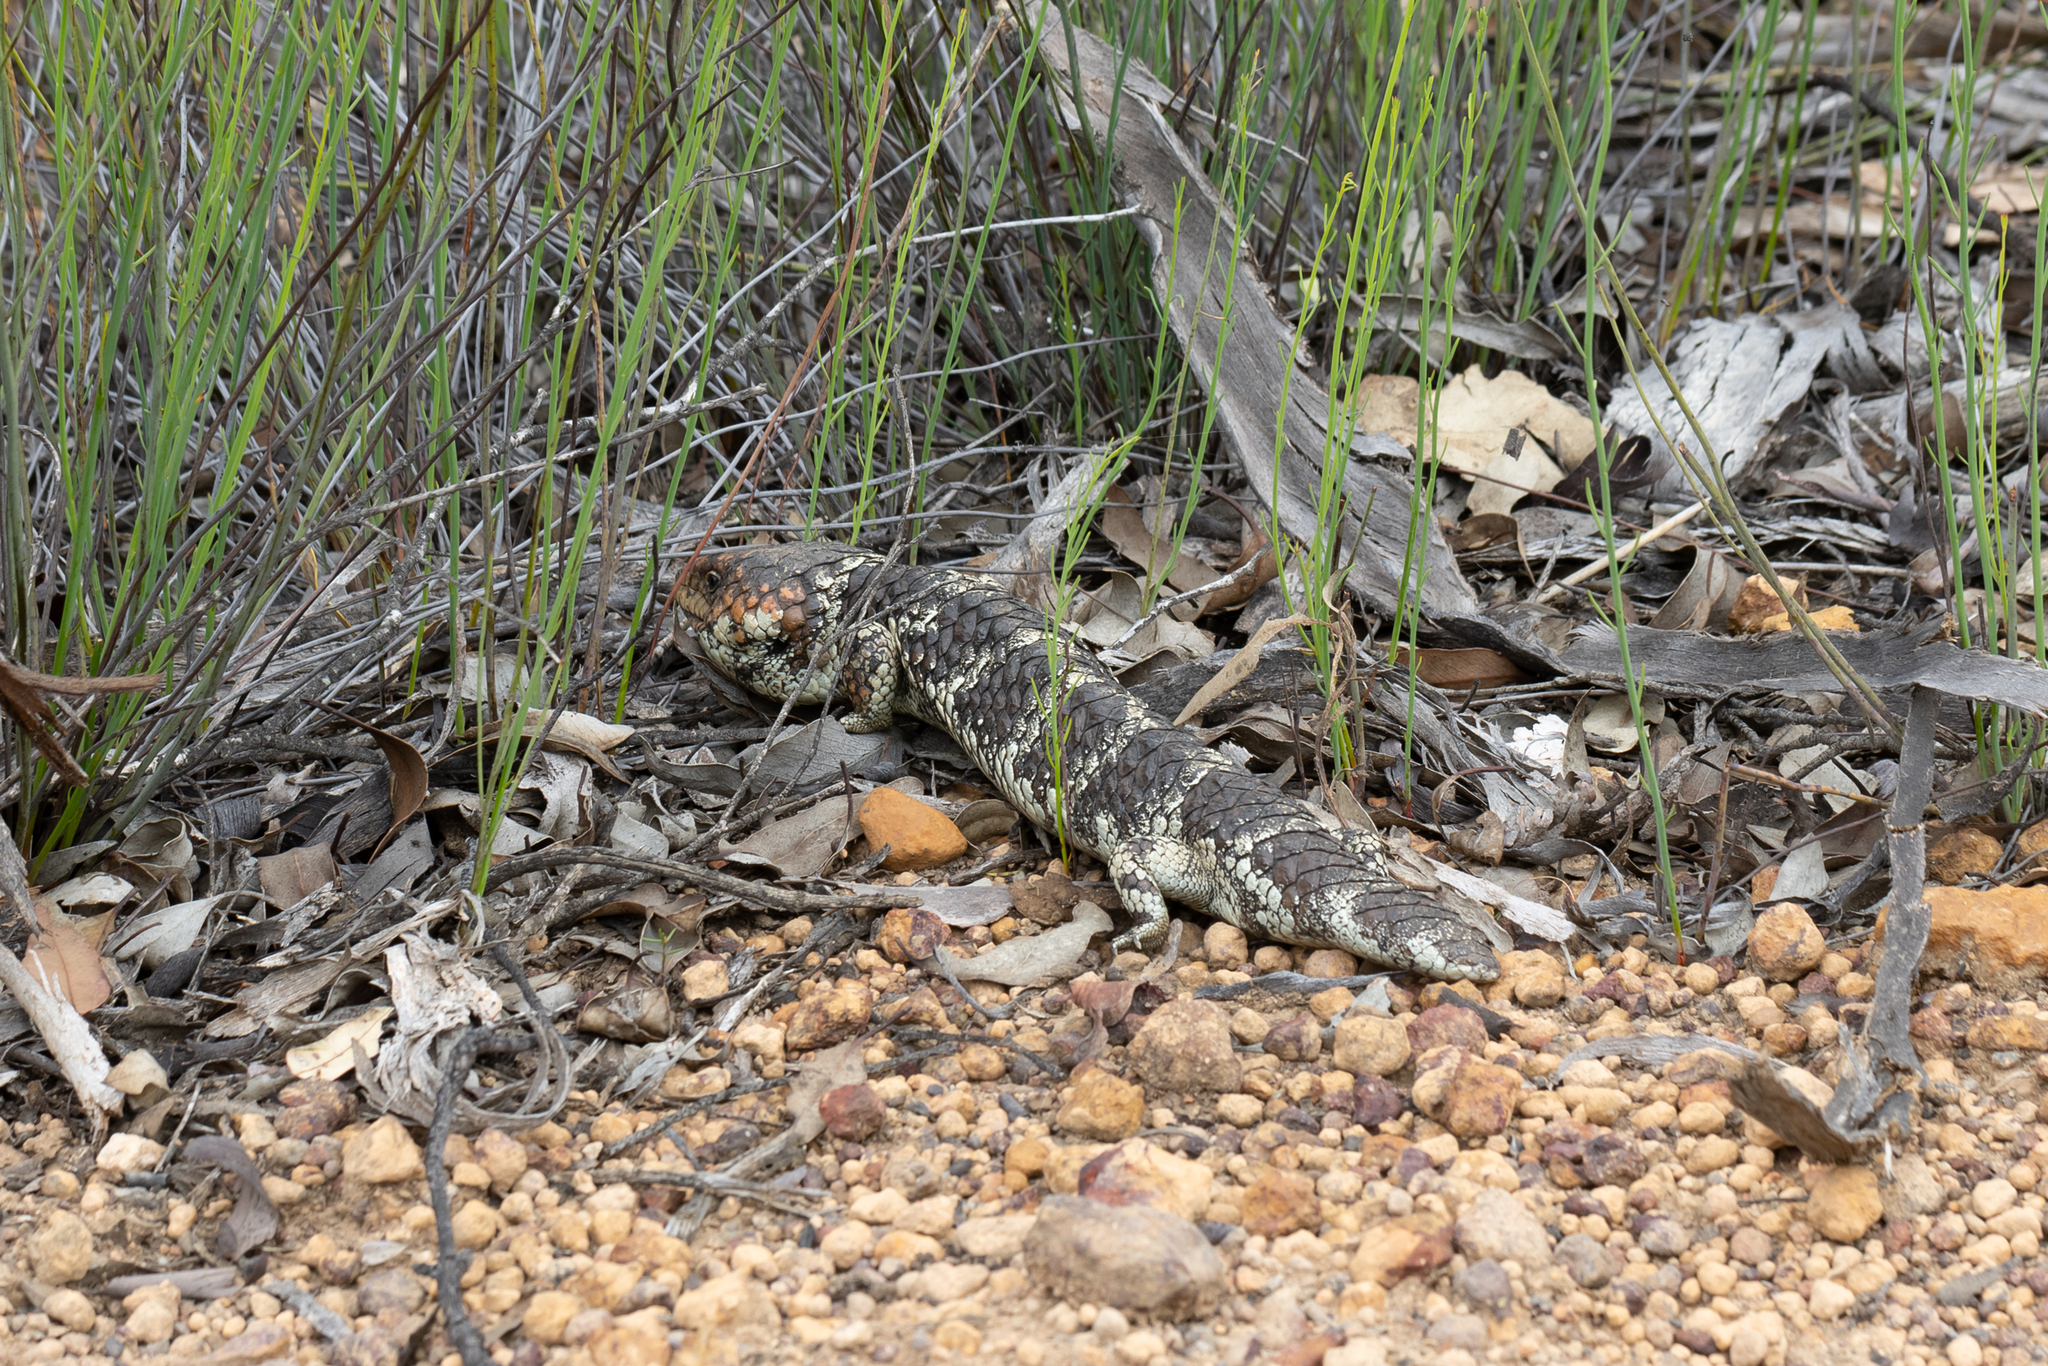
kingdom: Animalia
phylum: Chordata
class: Squamata
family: Scincidae
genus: Tiliqua
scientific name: Tiliqua rugosa
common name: Pinecone lizard
